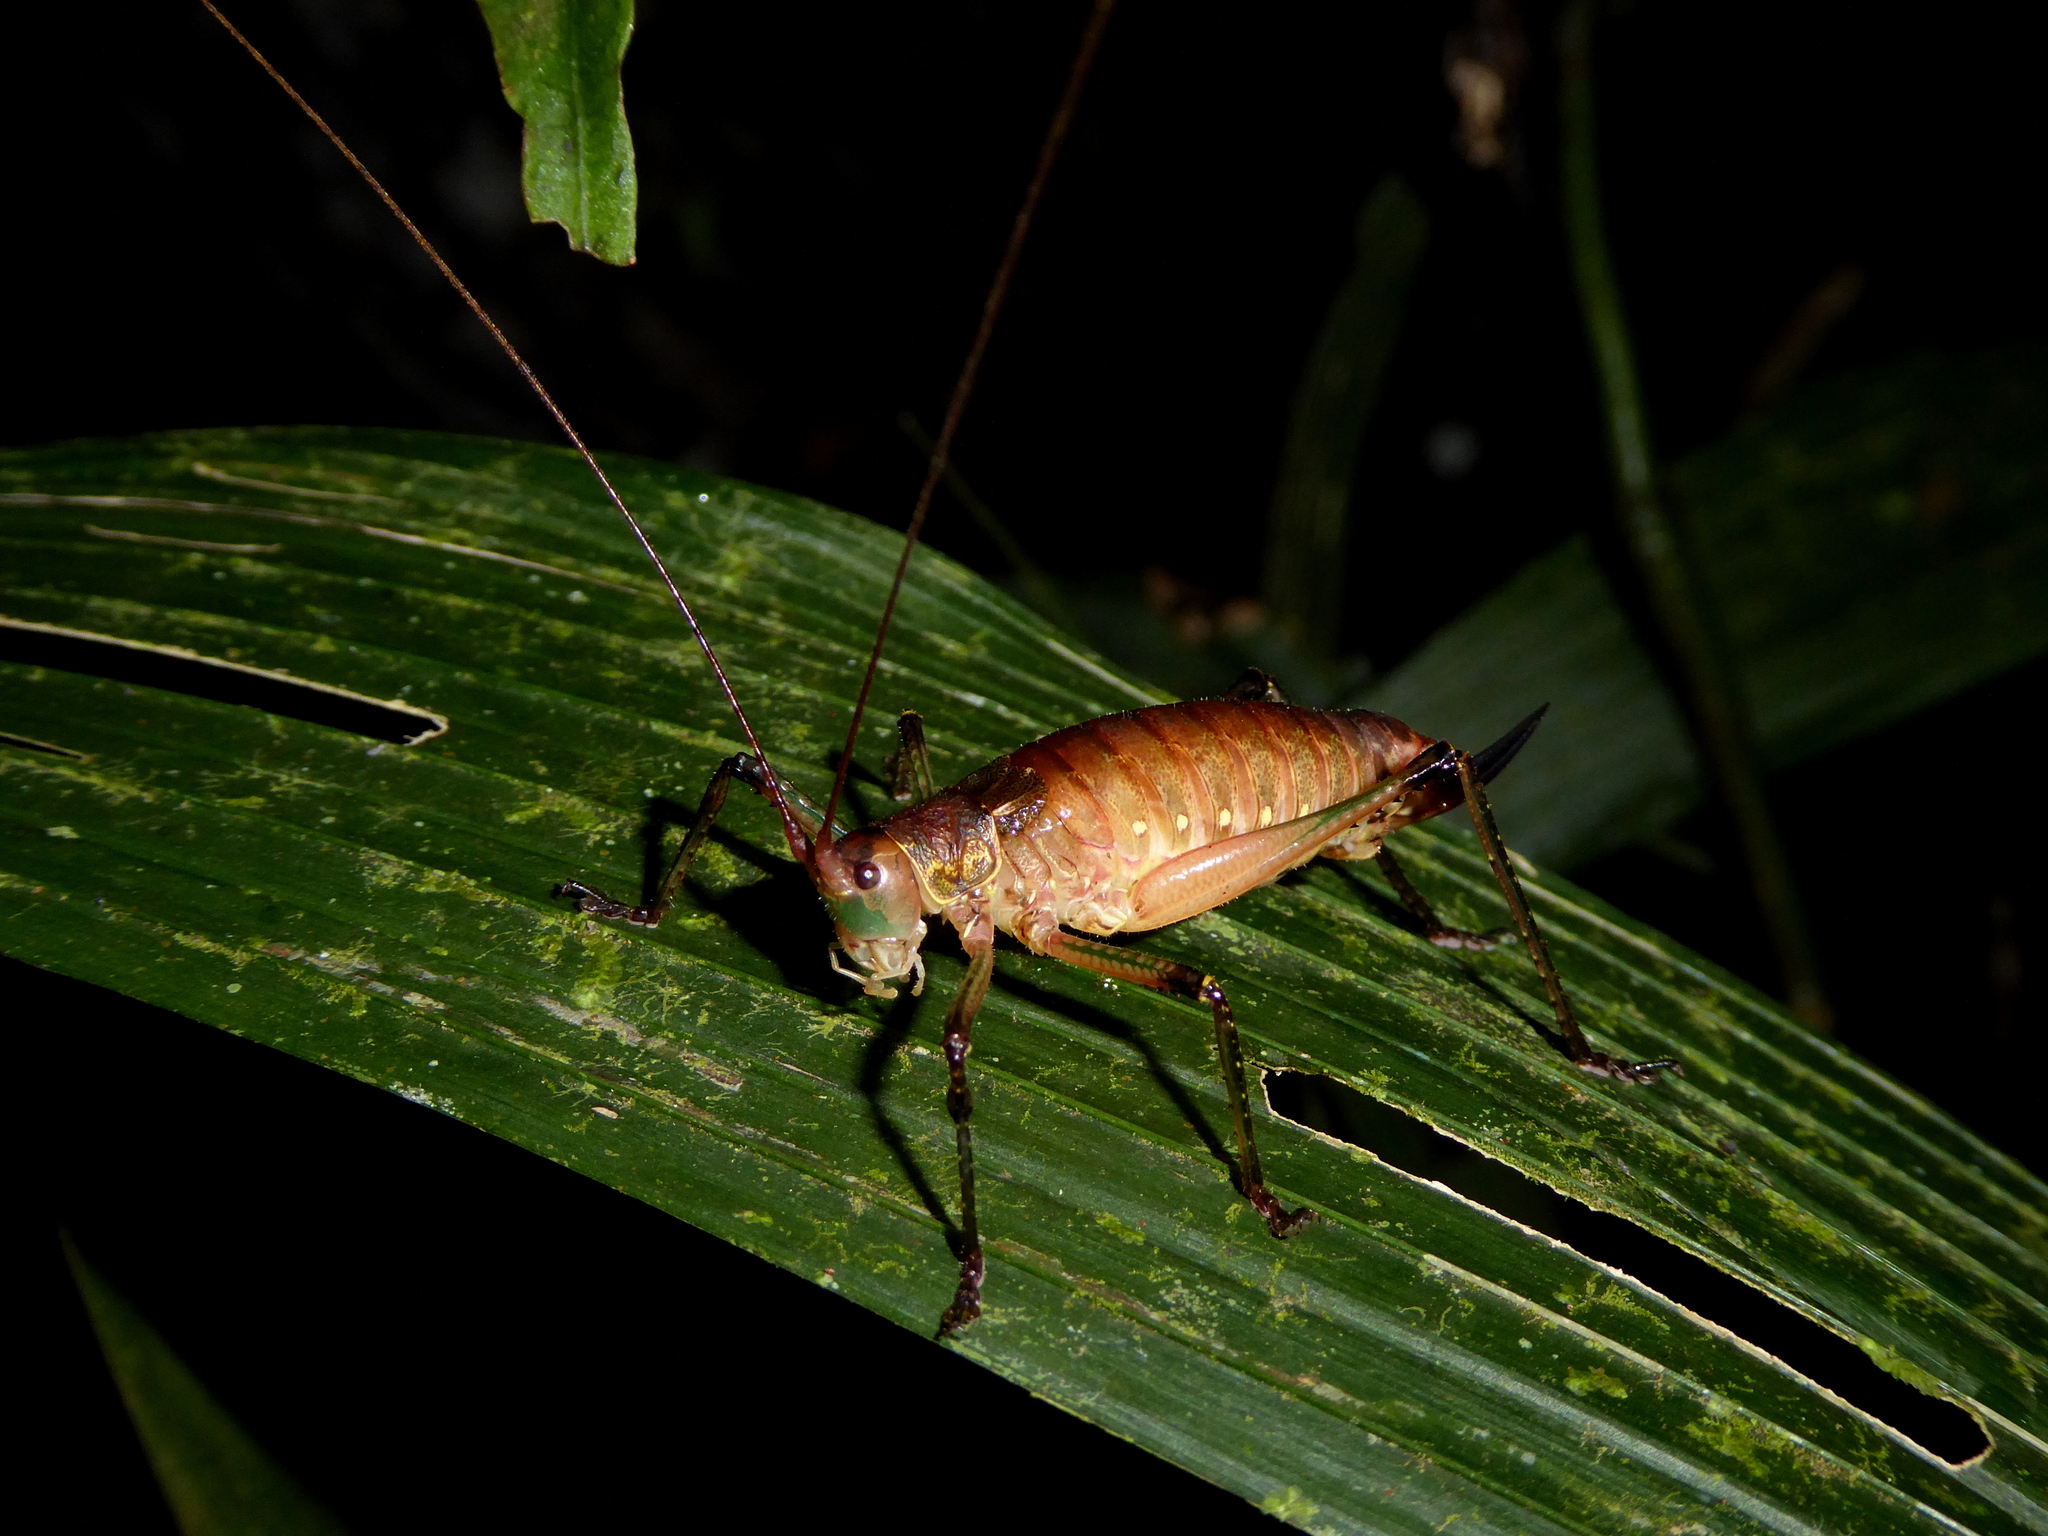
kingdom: Animalia
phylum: Arthropoda
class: Insecta
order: Orthoptera
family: Tettigoniidae
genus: Onychopygia
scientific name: Onychopygia brachyptera
